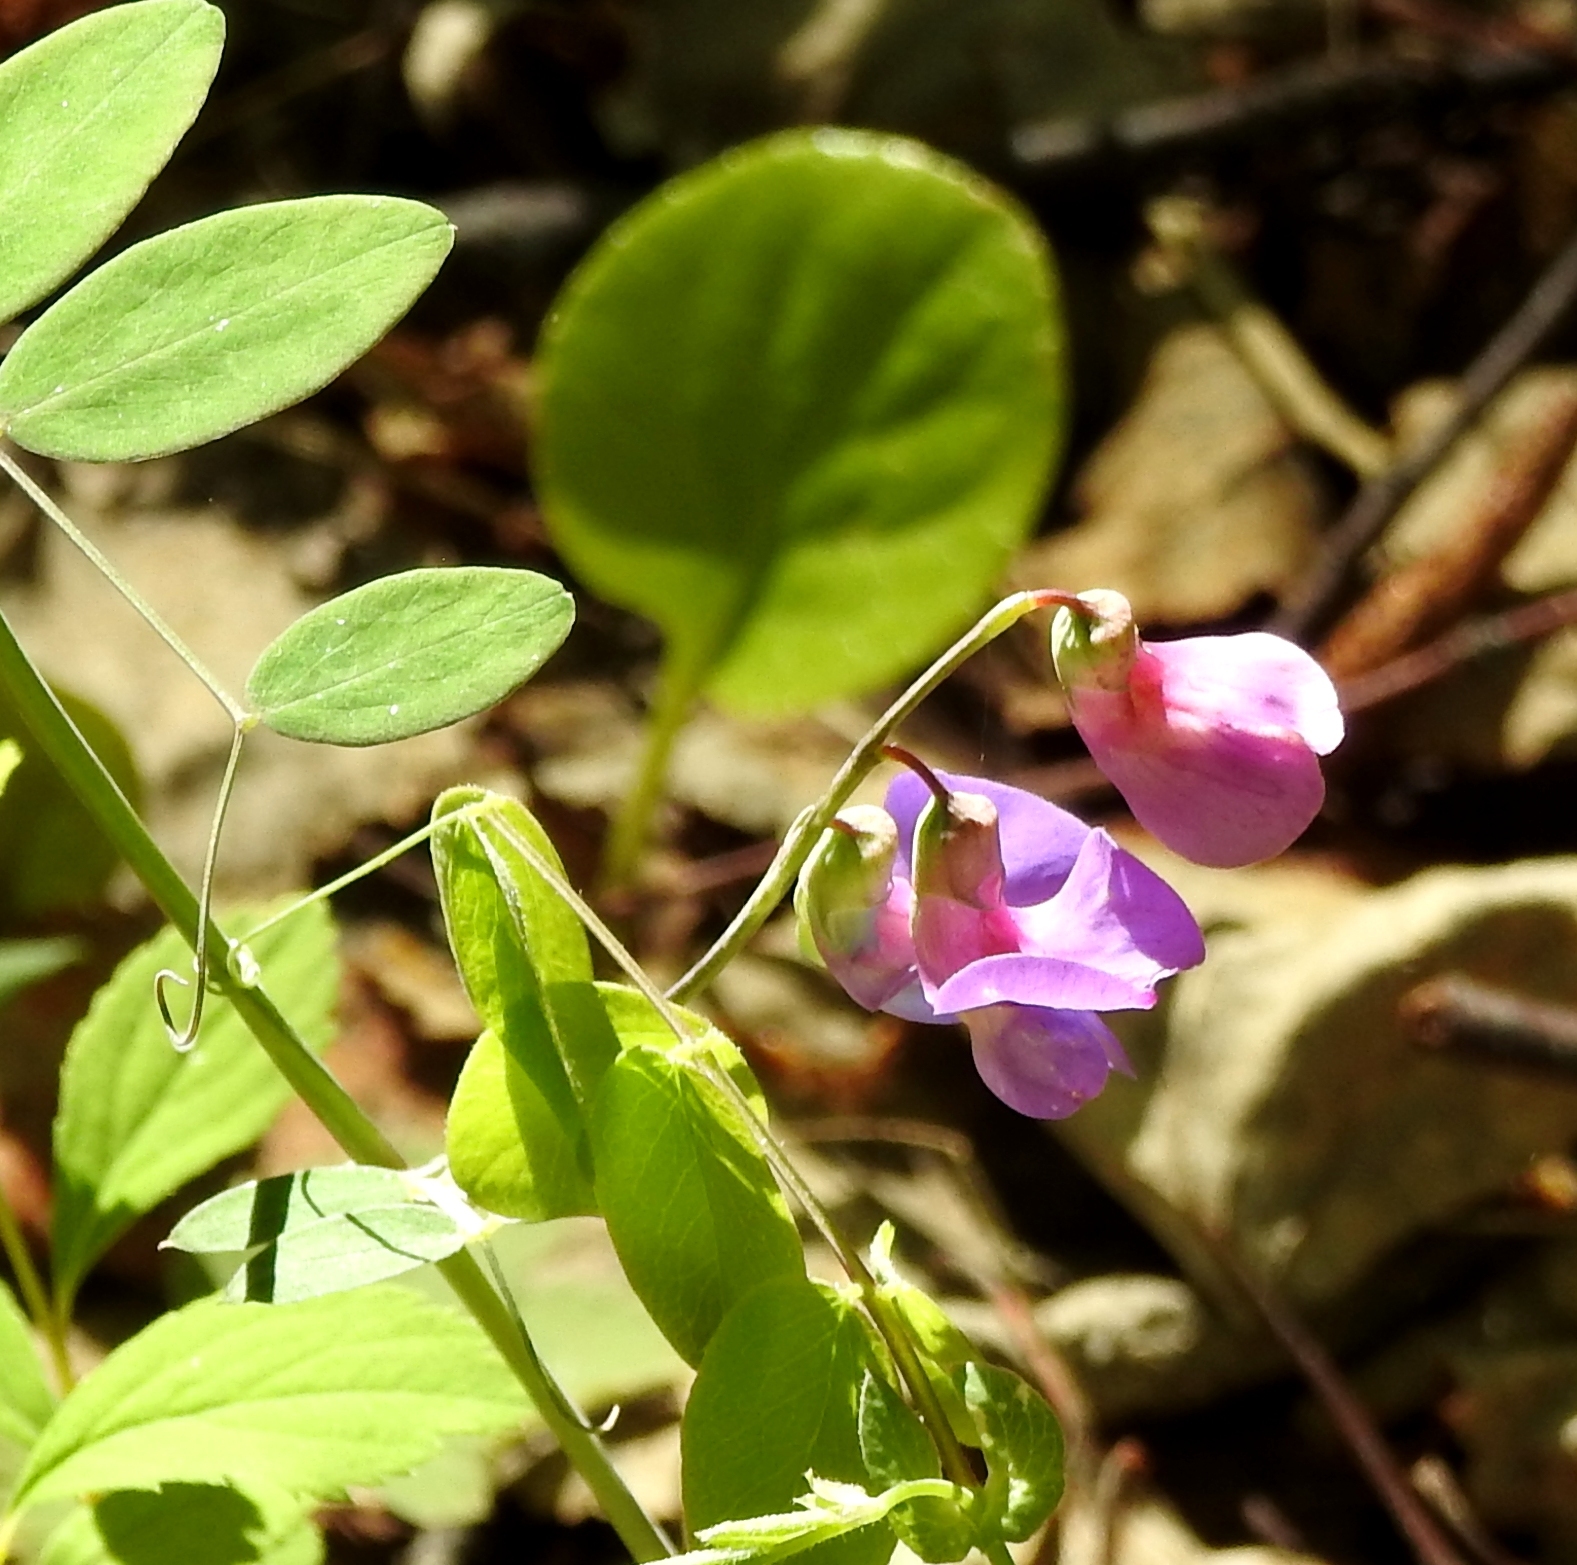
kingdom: Plantae
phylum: Tracheophyta
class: Magnoliopsida
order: Fabales
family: Fabaceae
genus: Lathyrus
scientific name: Lathyrus humilis
